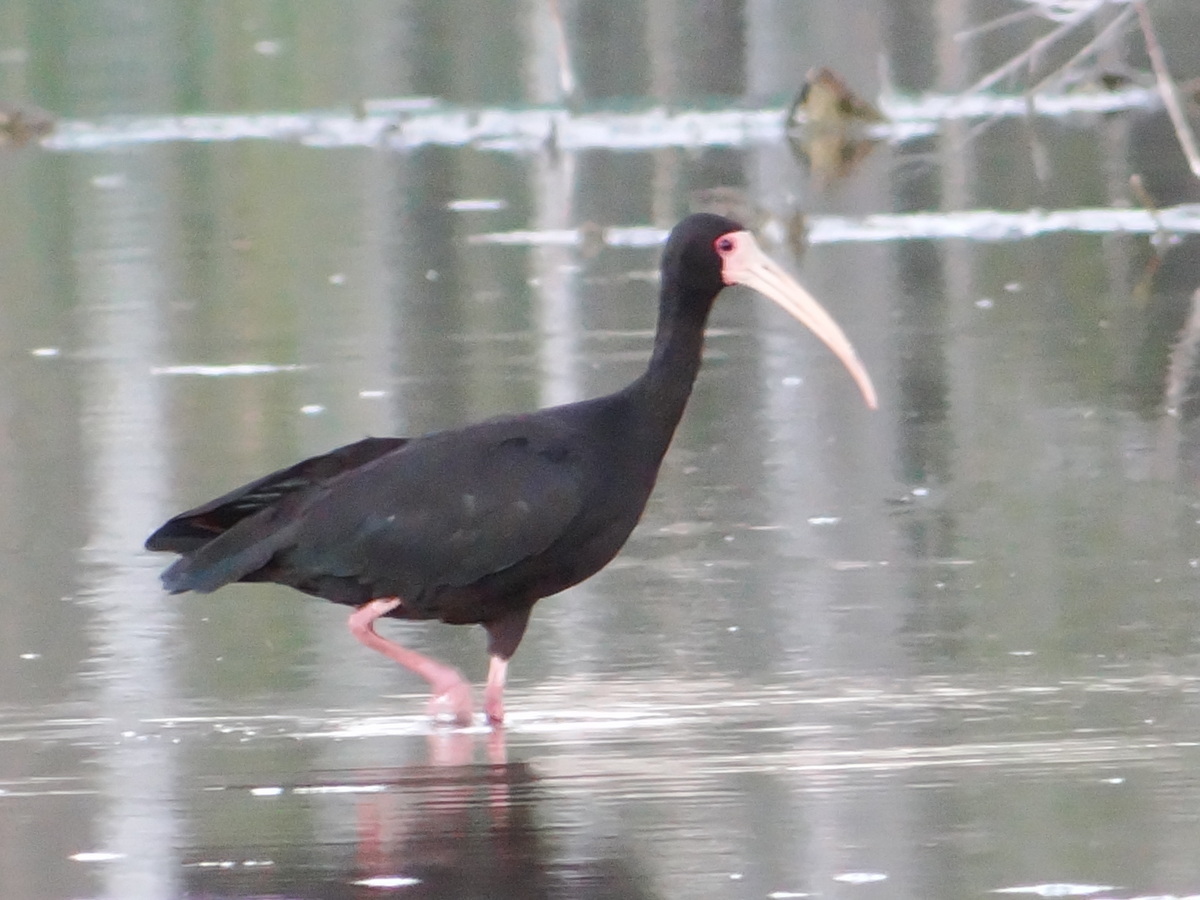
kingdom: Animalia
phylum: Chordata
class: Aves
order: Pelecaniformes
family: Threskiornithidae
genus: Phimosus
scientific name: Phimosus infuscatus
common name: Bare-faced ibis
